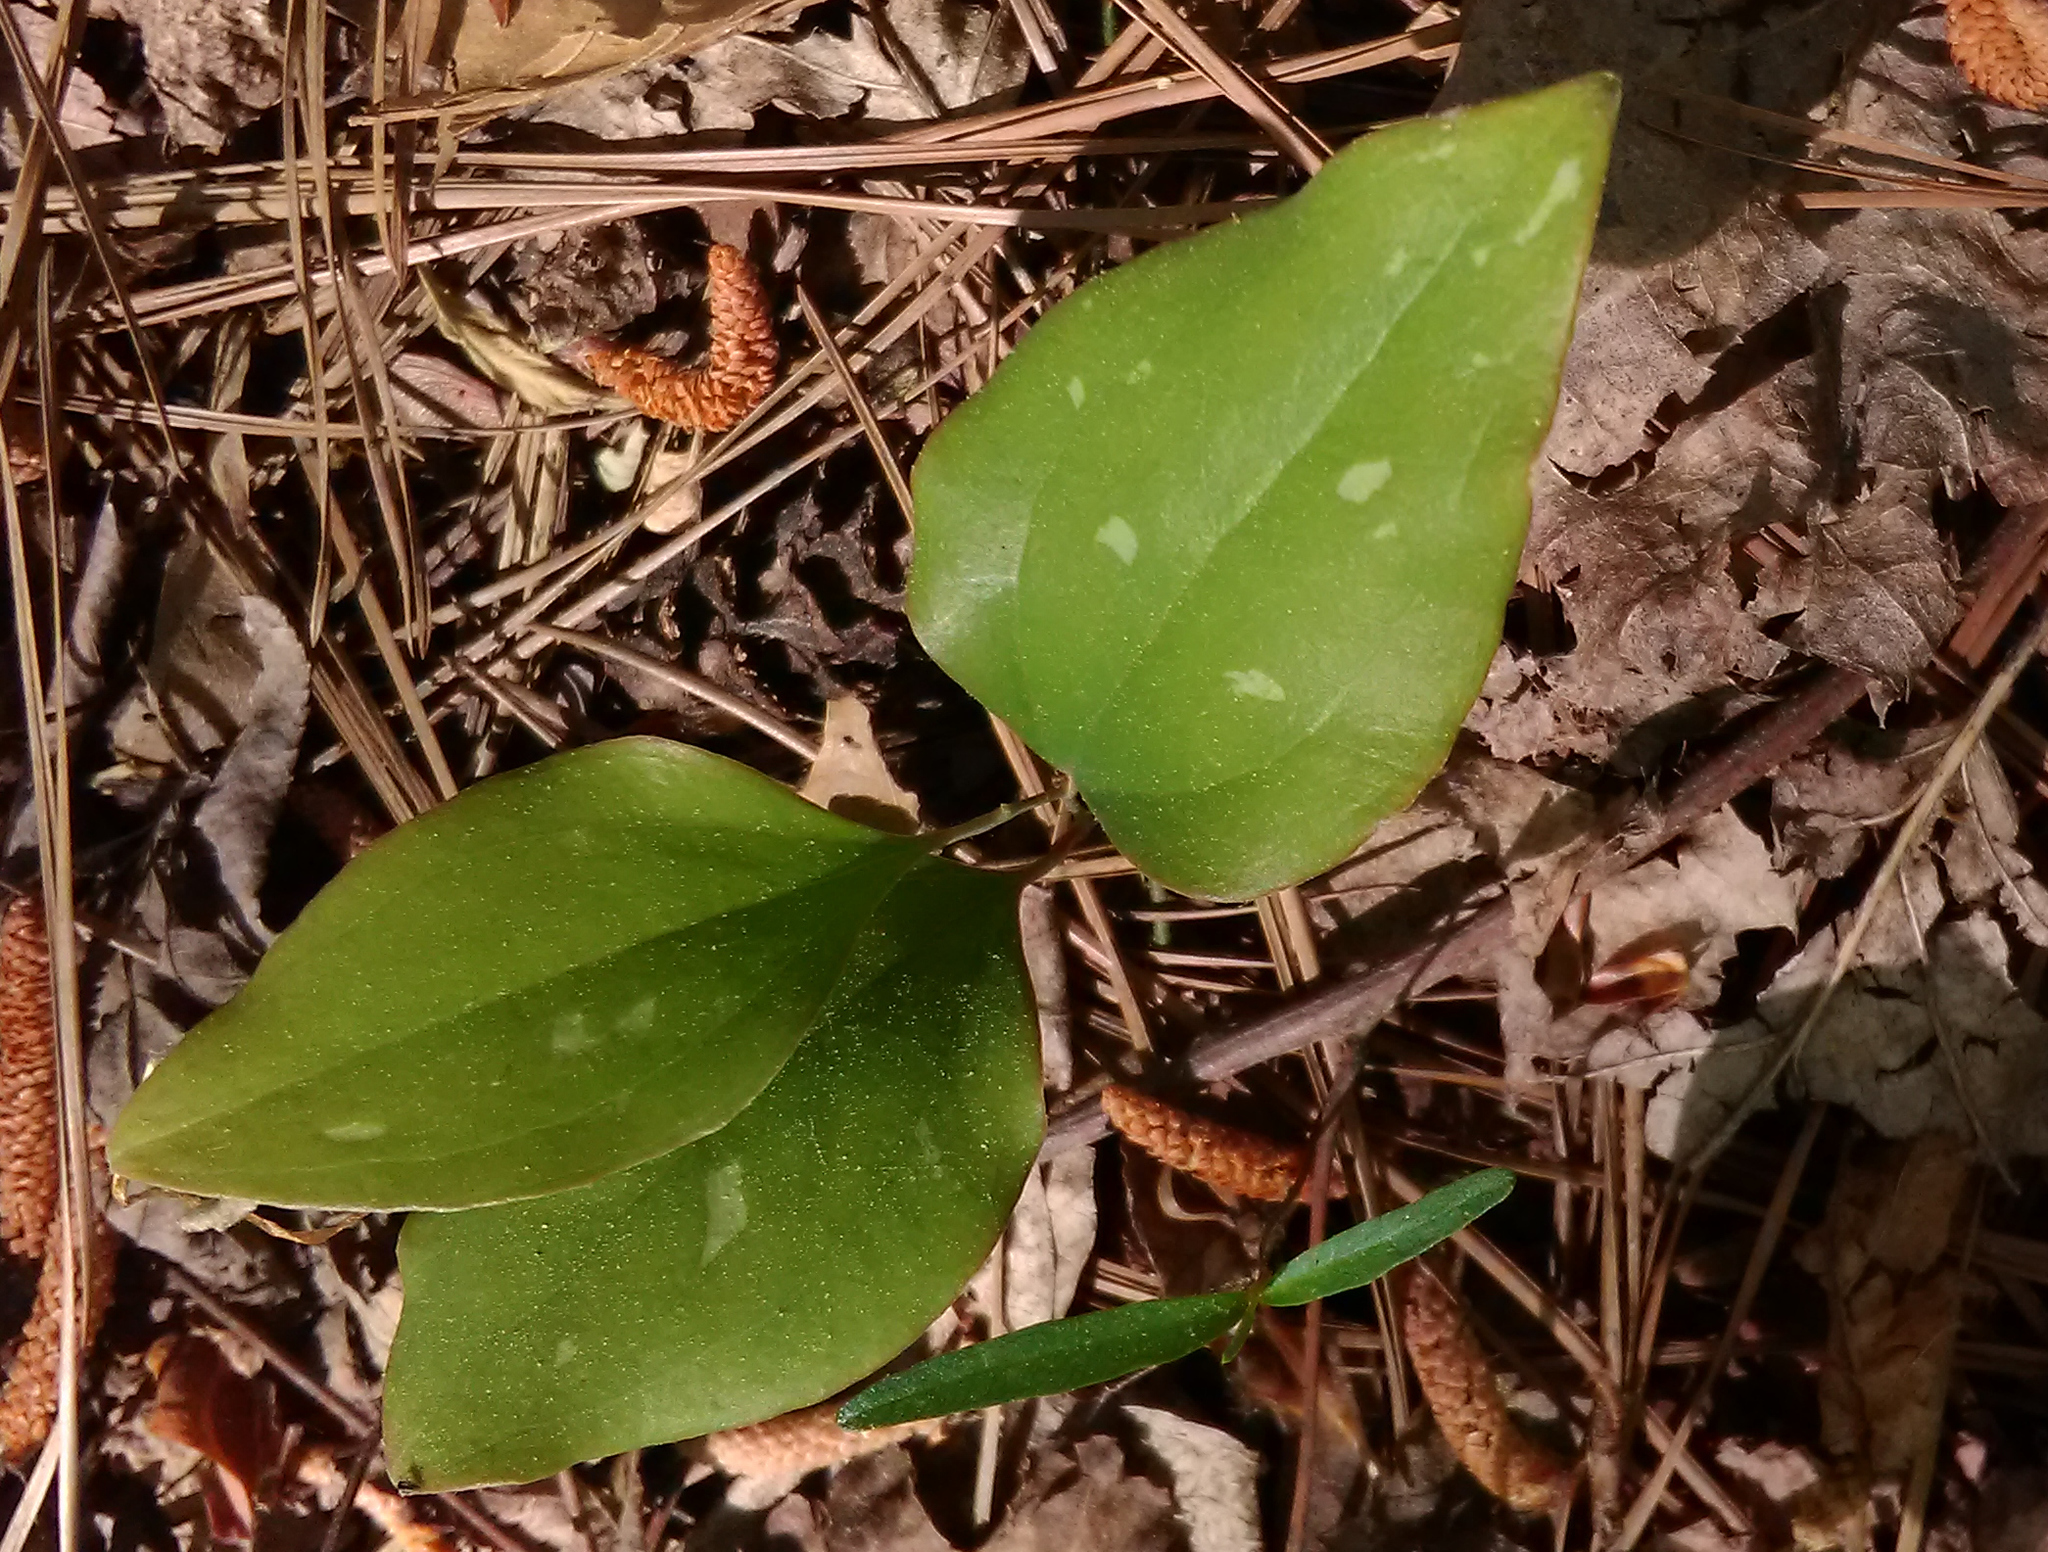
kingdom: Plantae
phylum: Tracheophyta
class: Liliopsida
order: Liliales
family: Smilacaceae
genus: Smilax
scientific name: Smilax glauca
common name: Cat greenbrier
